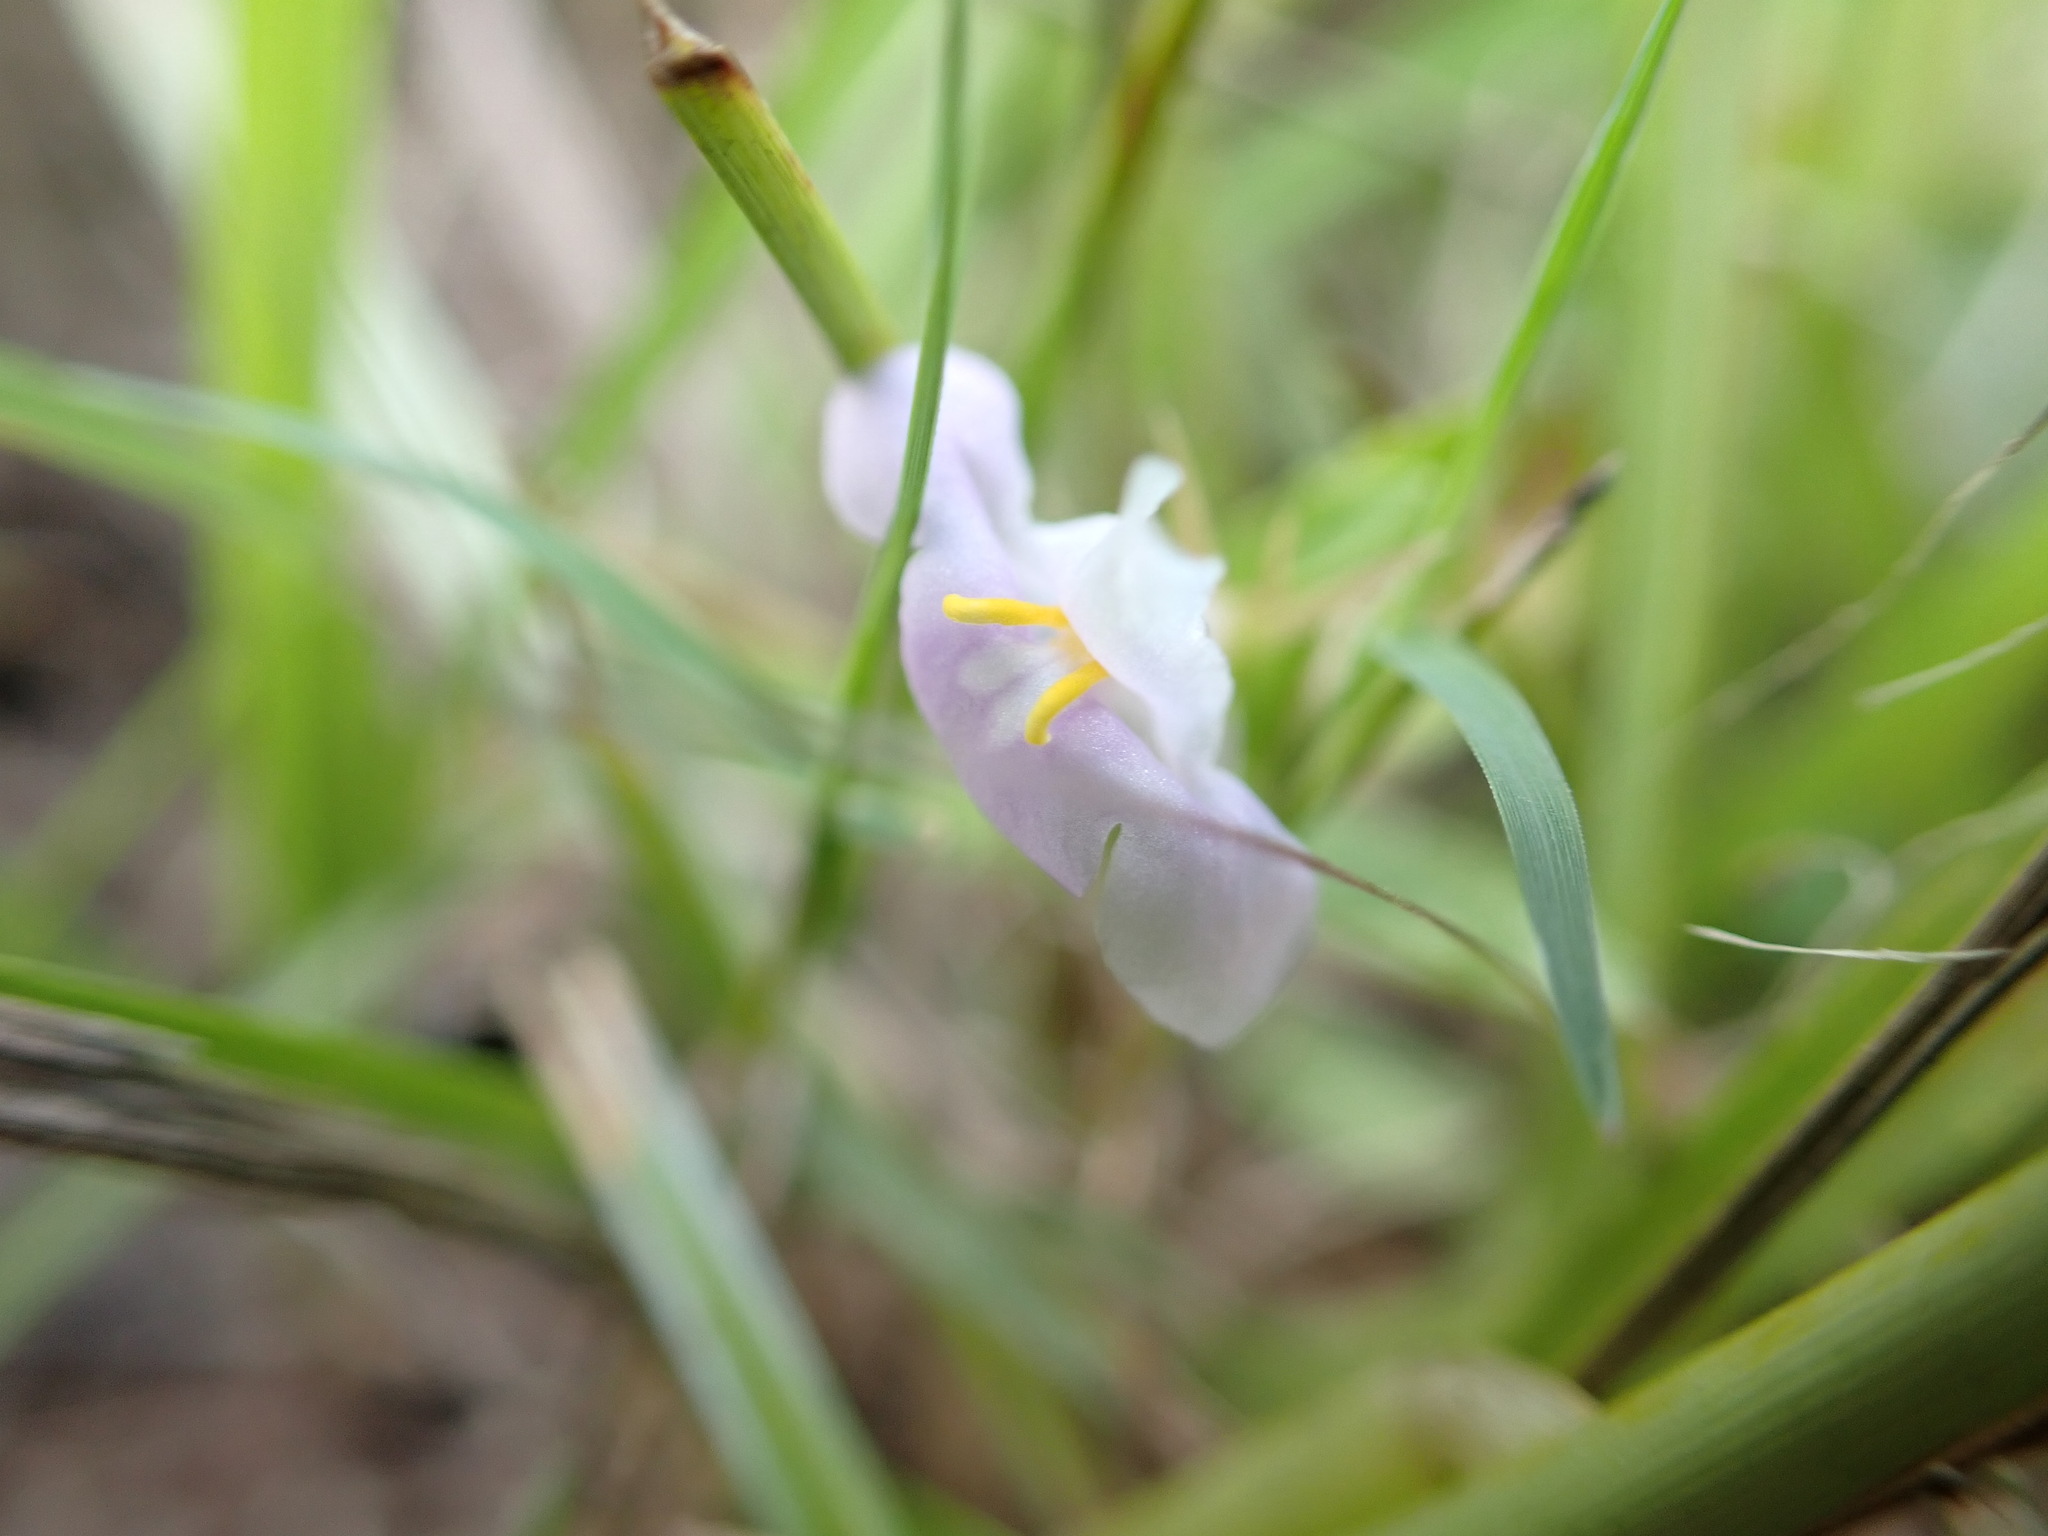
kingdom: Plantae
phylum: Tracheophyta
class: Magnoliopsida
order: Lamiales
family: Linderniaceae
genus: Bonnaya
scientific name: Bonnaya antipoda
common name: Sparrow false pimpernel
